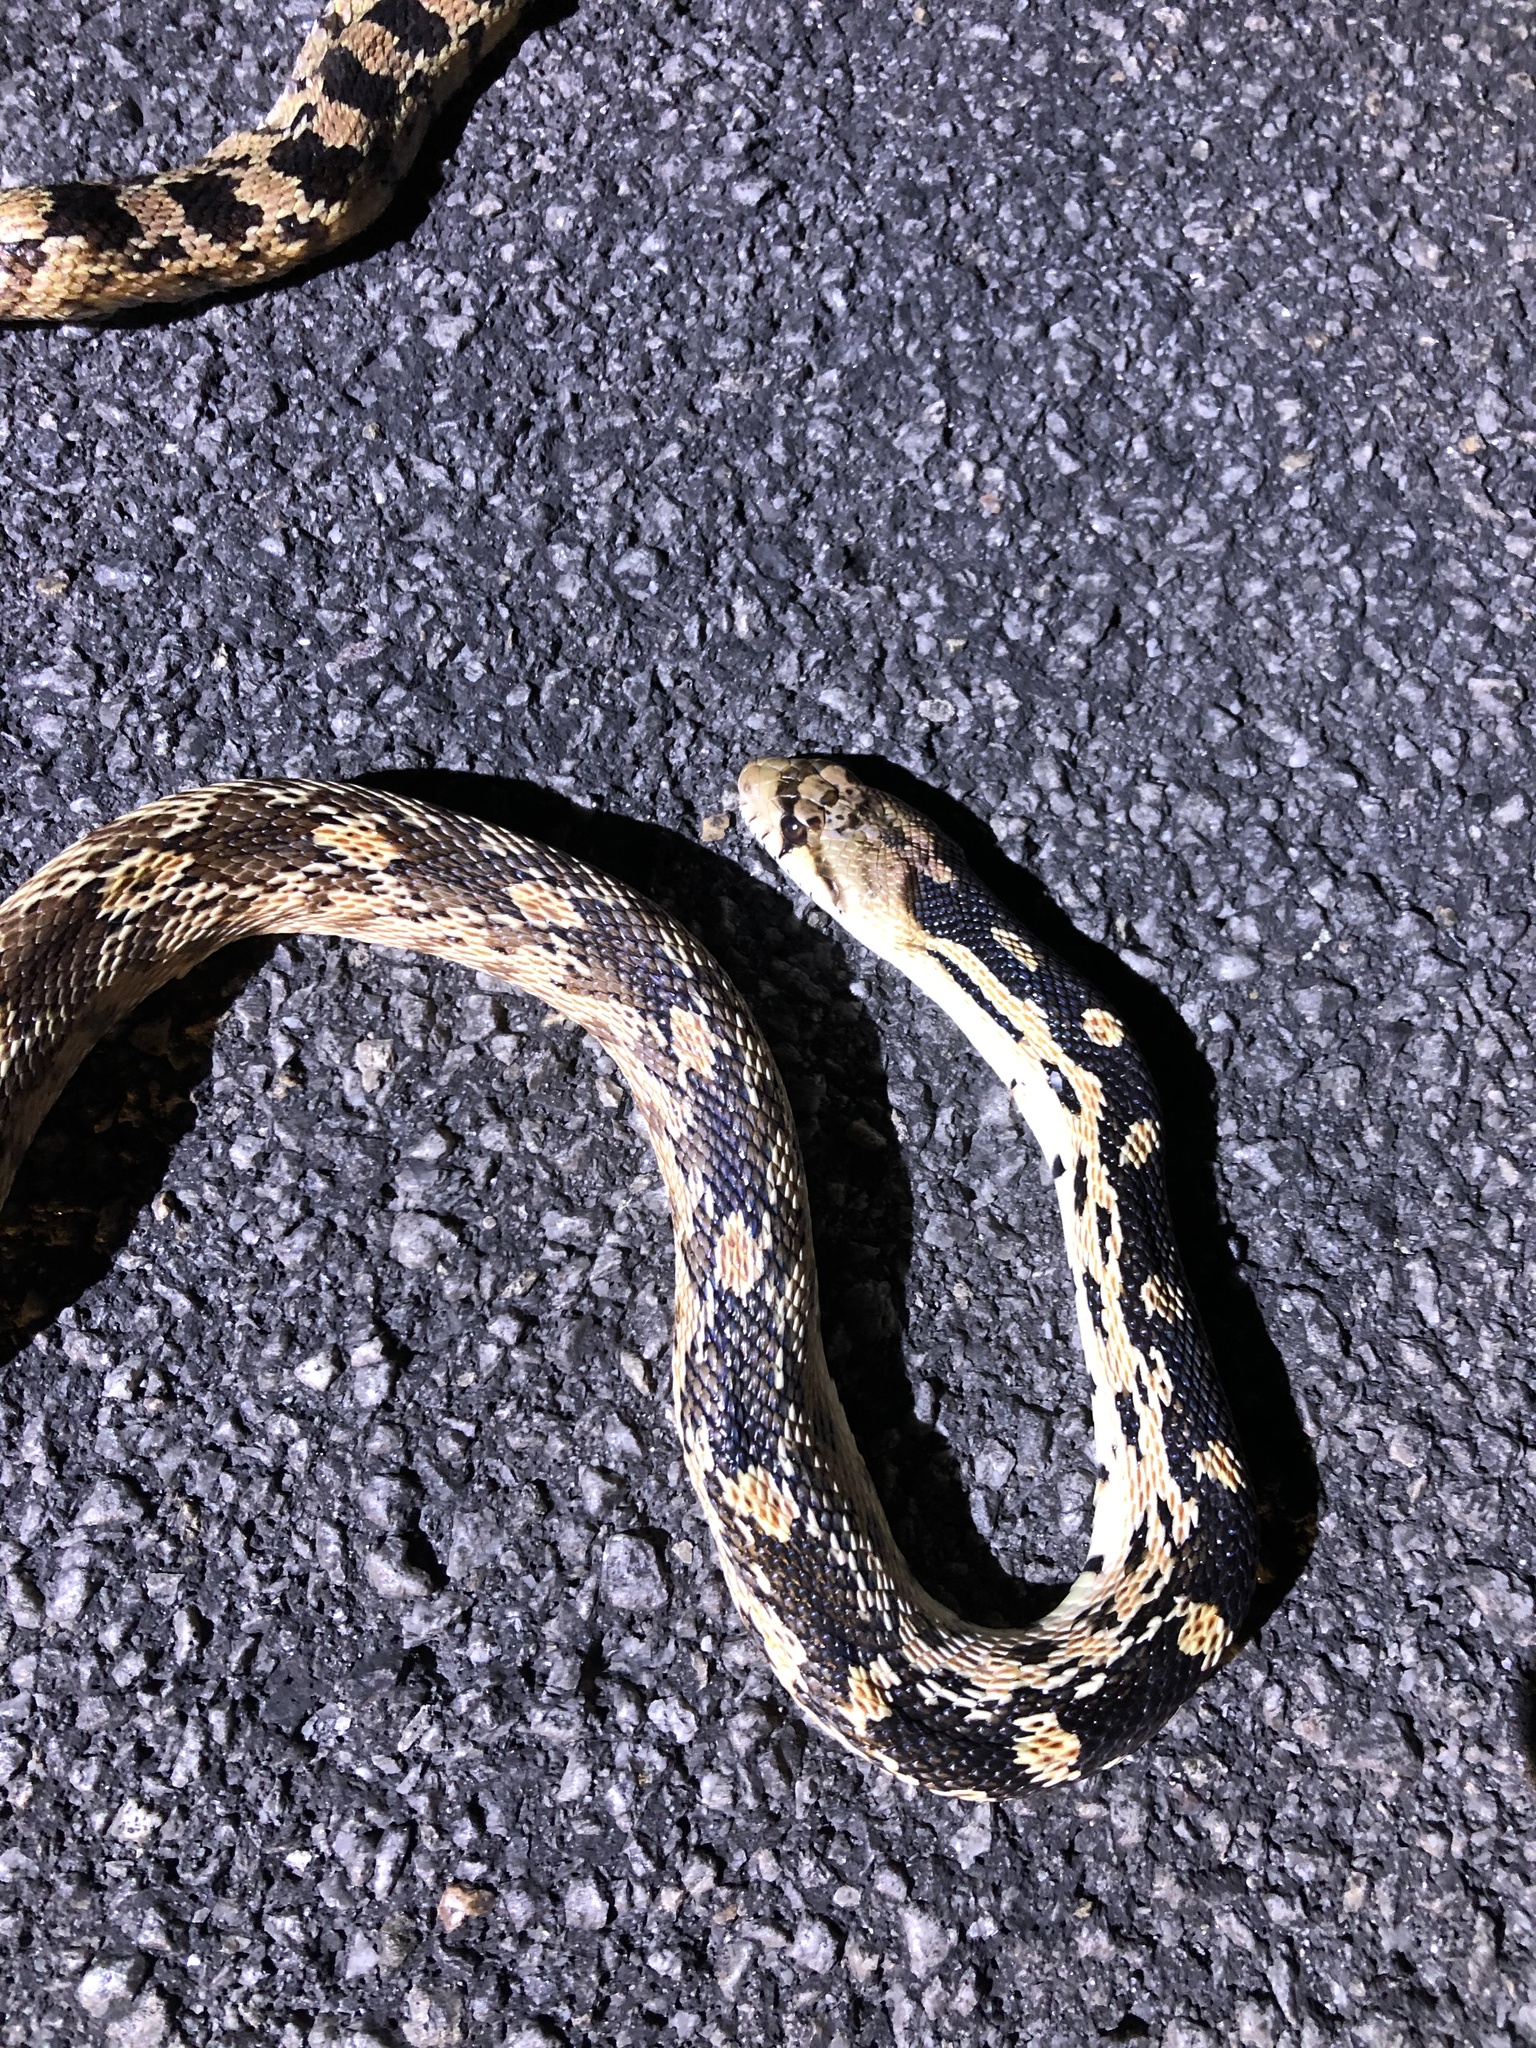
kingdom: Animalia
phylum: Chordata
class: Squamata
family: Colubridae
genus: Pituophis
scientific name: Pituophis catenifer
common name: Gopher snake
